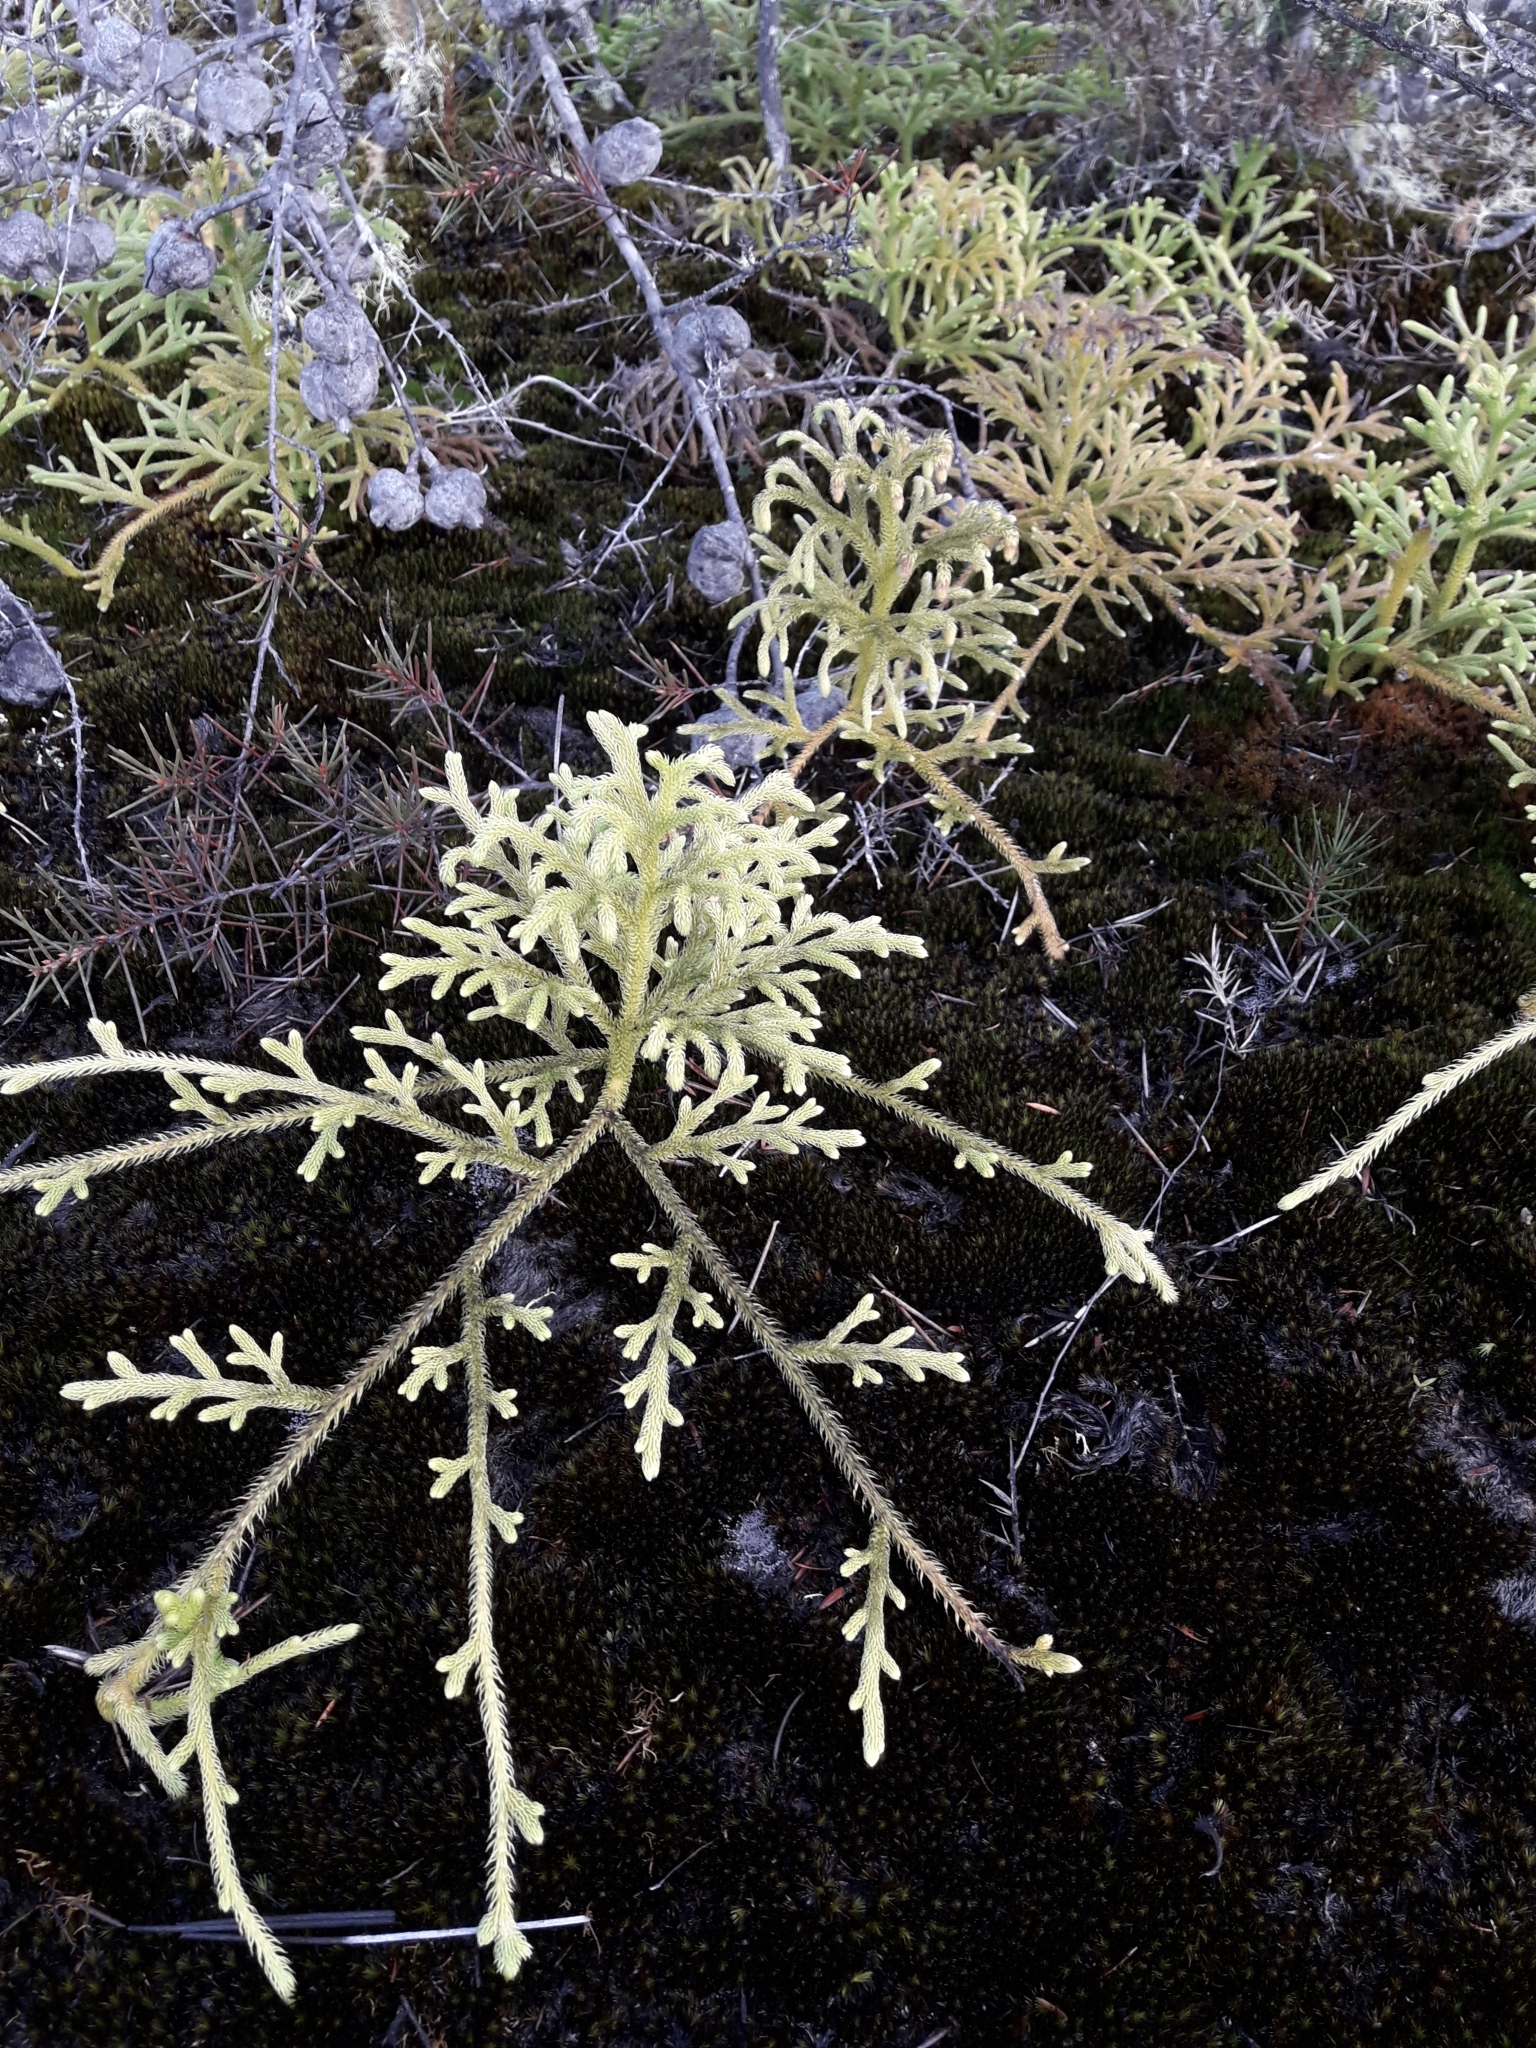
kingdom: Plantae
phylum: Tracheophyta
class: Lycopodiopsida
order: Lycopodiales
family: Lycopodiaceae
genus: Palhinhaea
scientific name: Palhinhaea cernua
